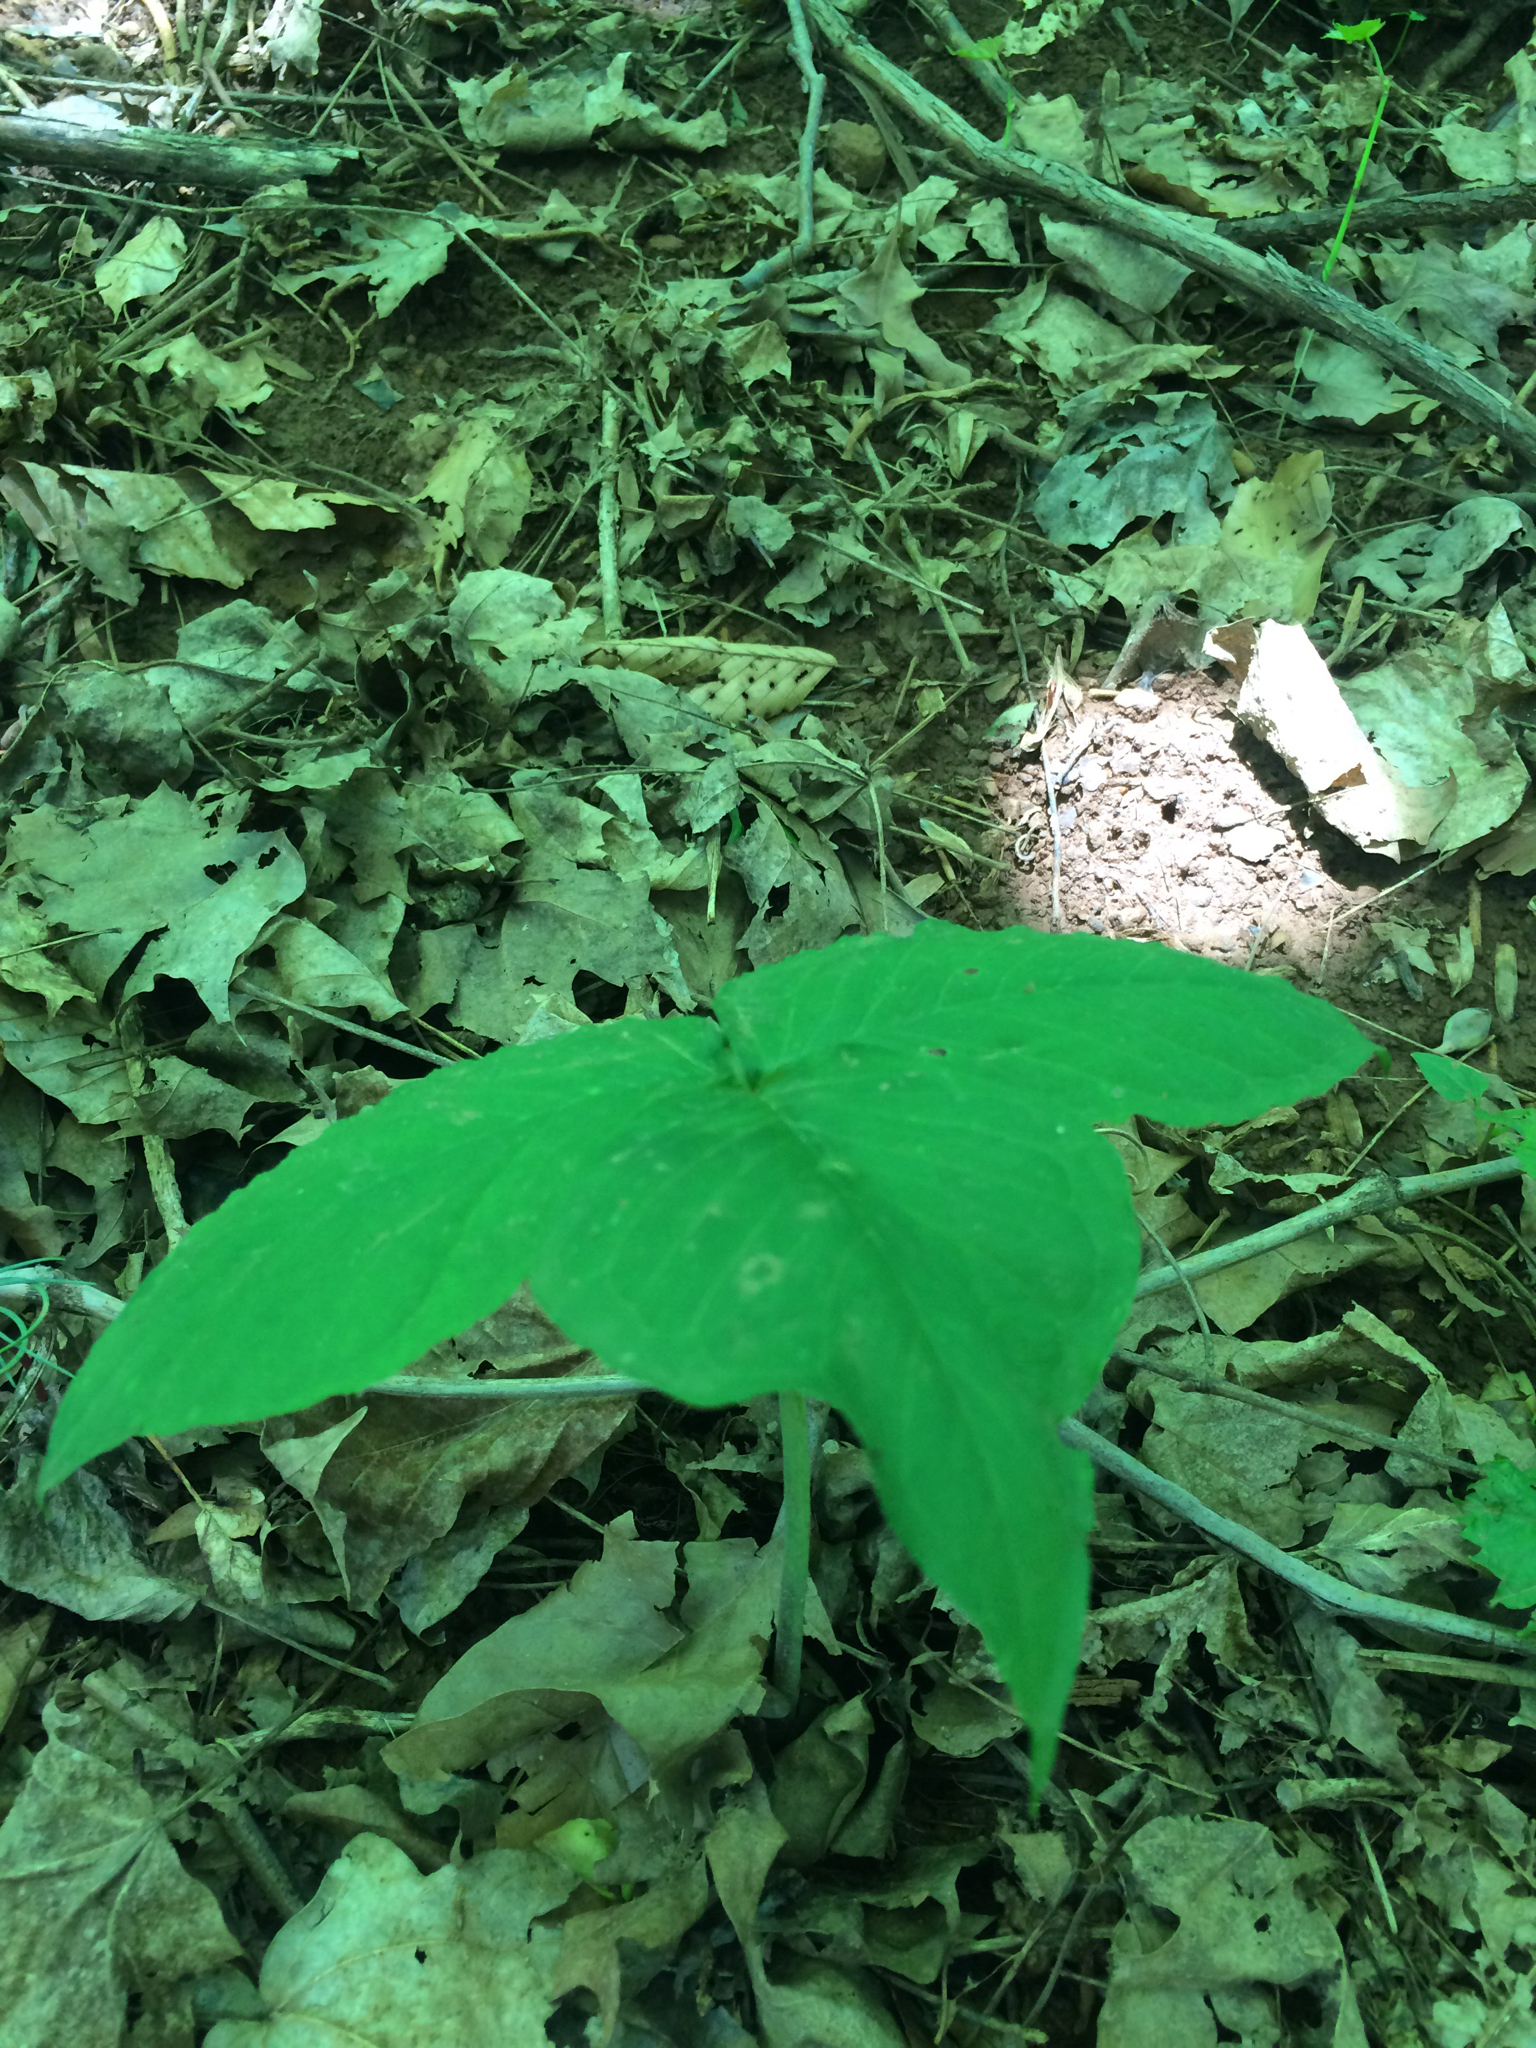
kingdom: Plantae
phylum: Tracheophyta
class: Liliopsida
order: Alismatales
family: Araceae
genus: Arisaema
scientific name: Arisaema triphyllum
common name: Jack-in-the-pulpit
